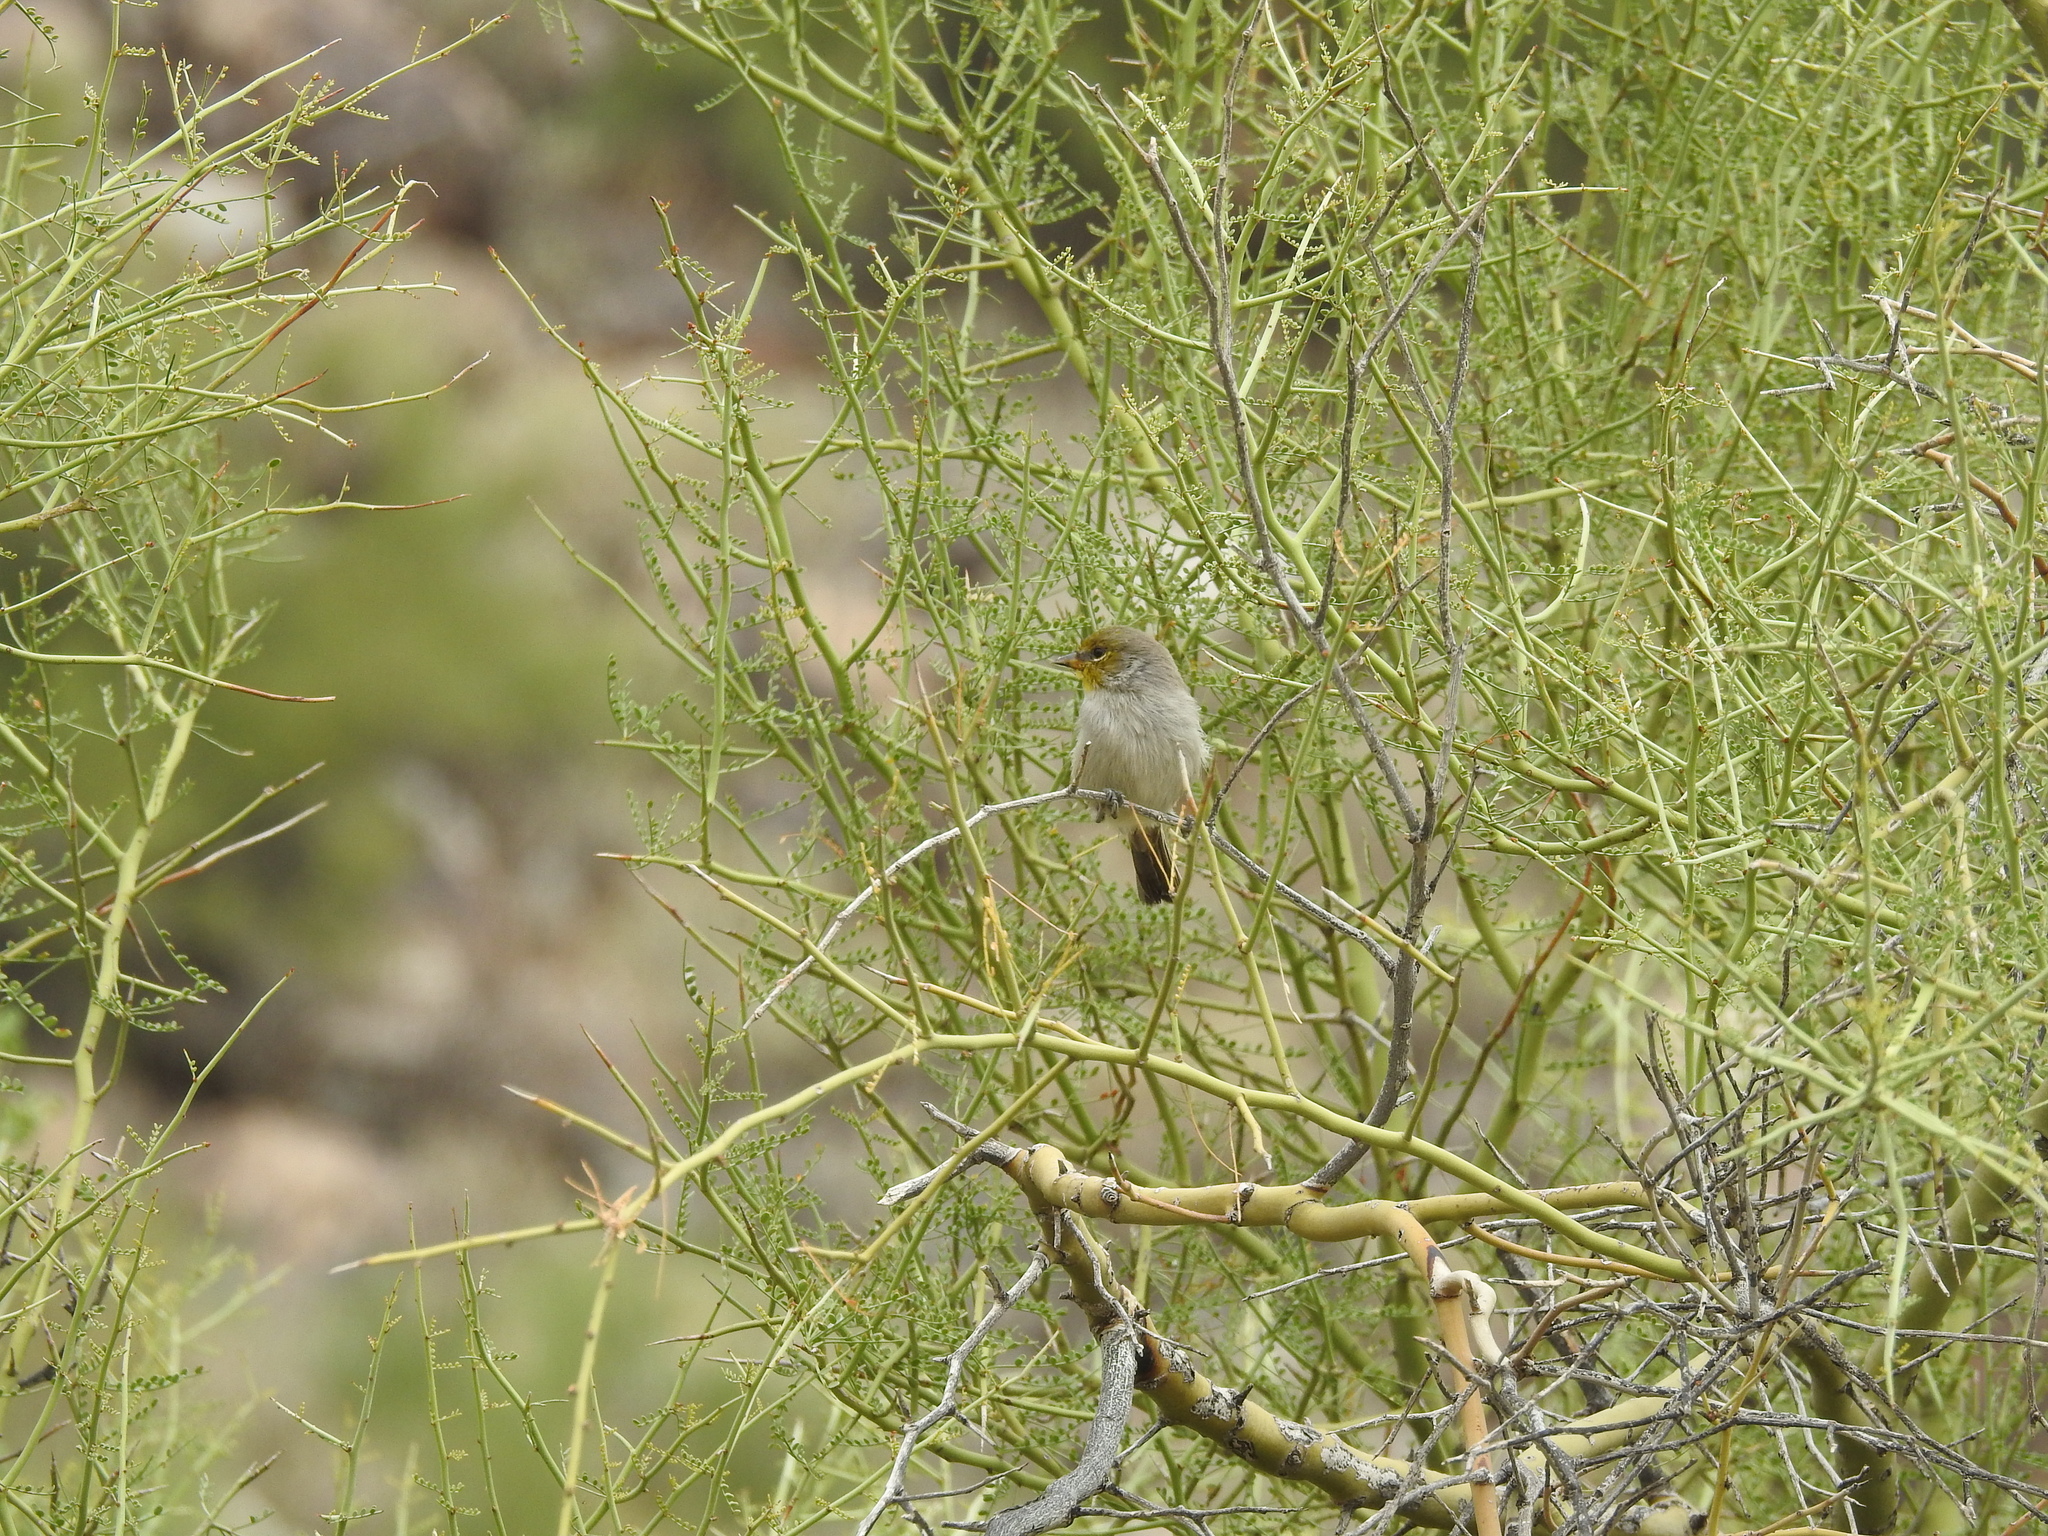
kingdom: Animalia
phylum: Chordata
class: Aves
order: Passeriformes
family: Remizidae
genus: Auriparus
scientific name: Auriparus flaviceps
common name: Verdin
